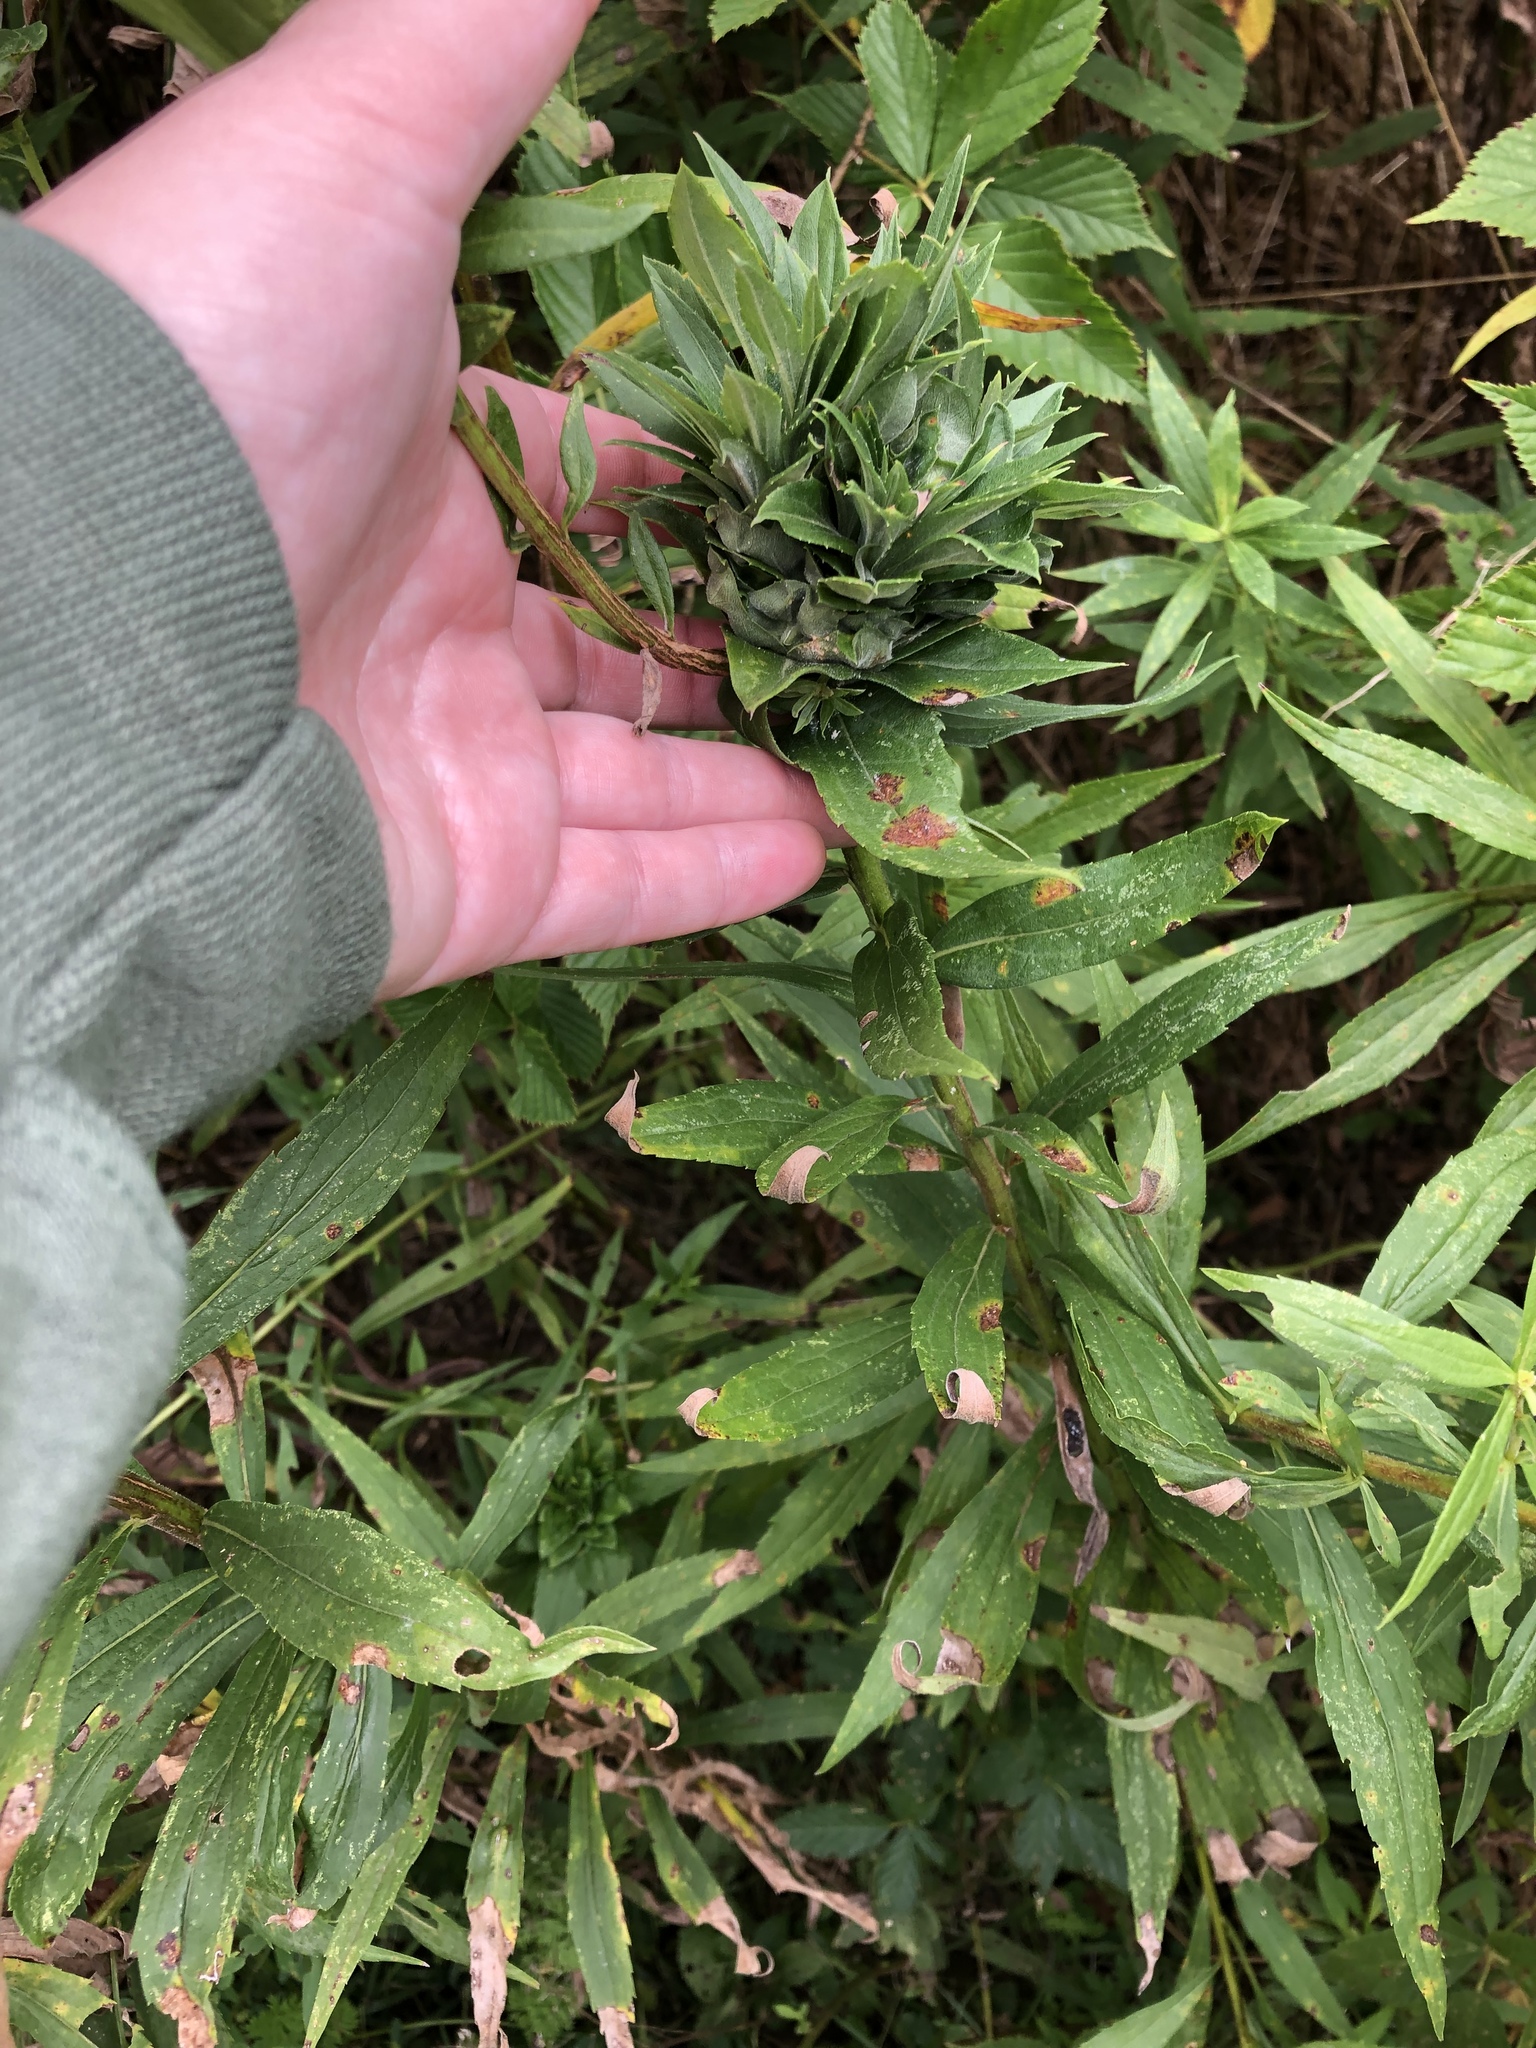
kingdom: Animalia
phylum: Arthropoda
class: Insecta
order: Diptera
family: Cecidomyiidae
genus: Rhopalomyia
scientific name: Rhopalomyia solidaginis
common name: Goldenrod bunch gall midge
